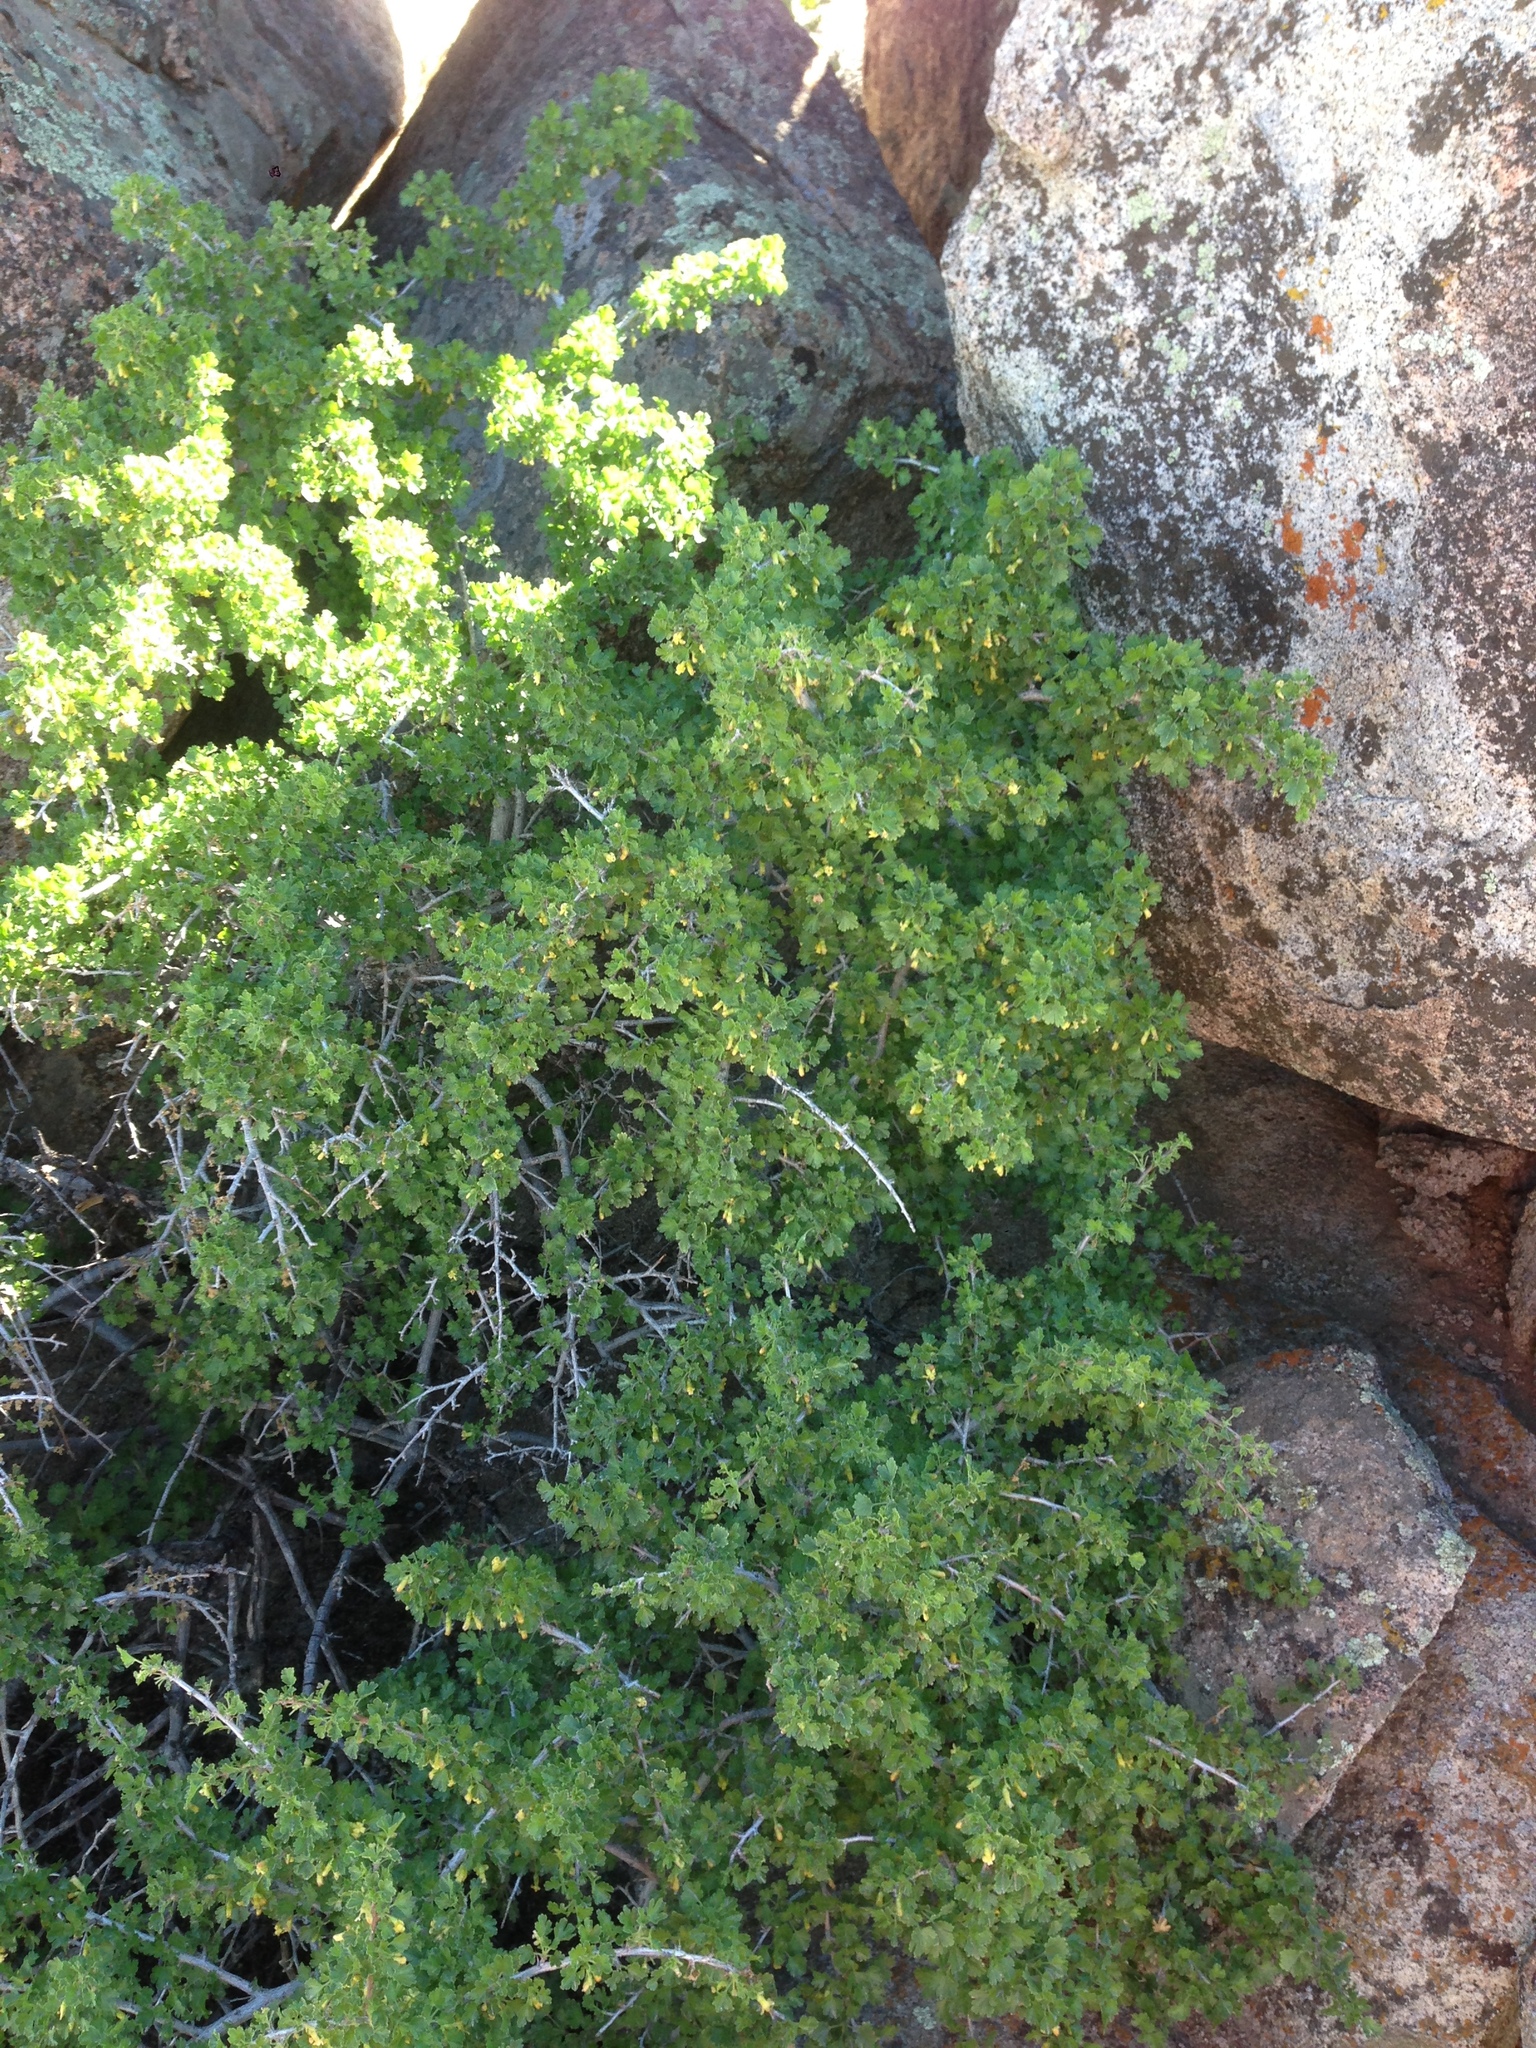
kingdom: Plantae
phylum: Tracheophyta
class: Magnoliopsida
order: Saxifragales
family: Grossulariaceae
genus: Ribes
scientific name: Ribes quercetorum
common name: Oak gooseberry
